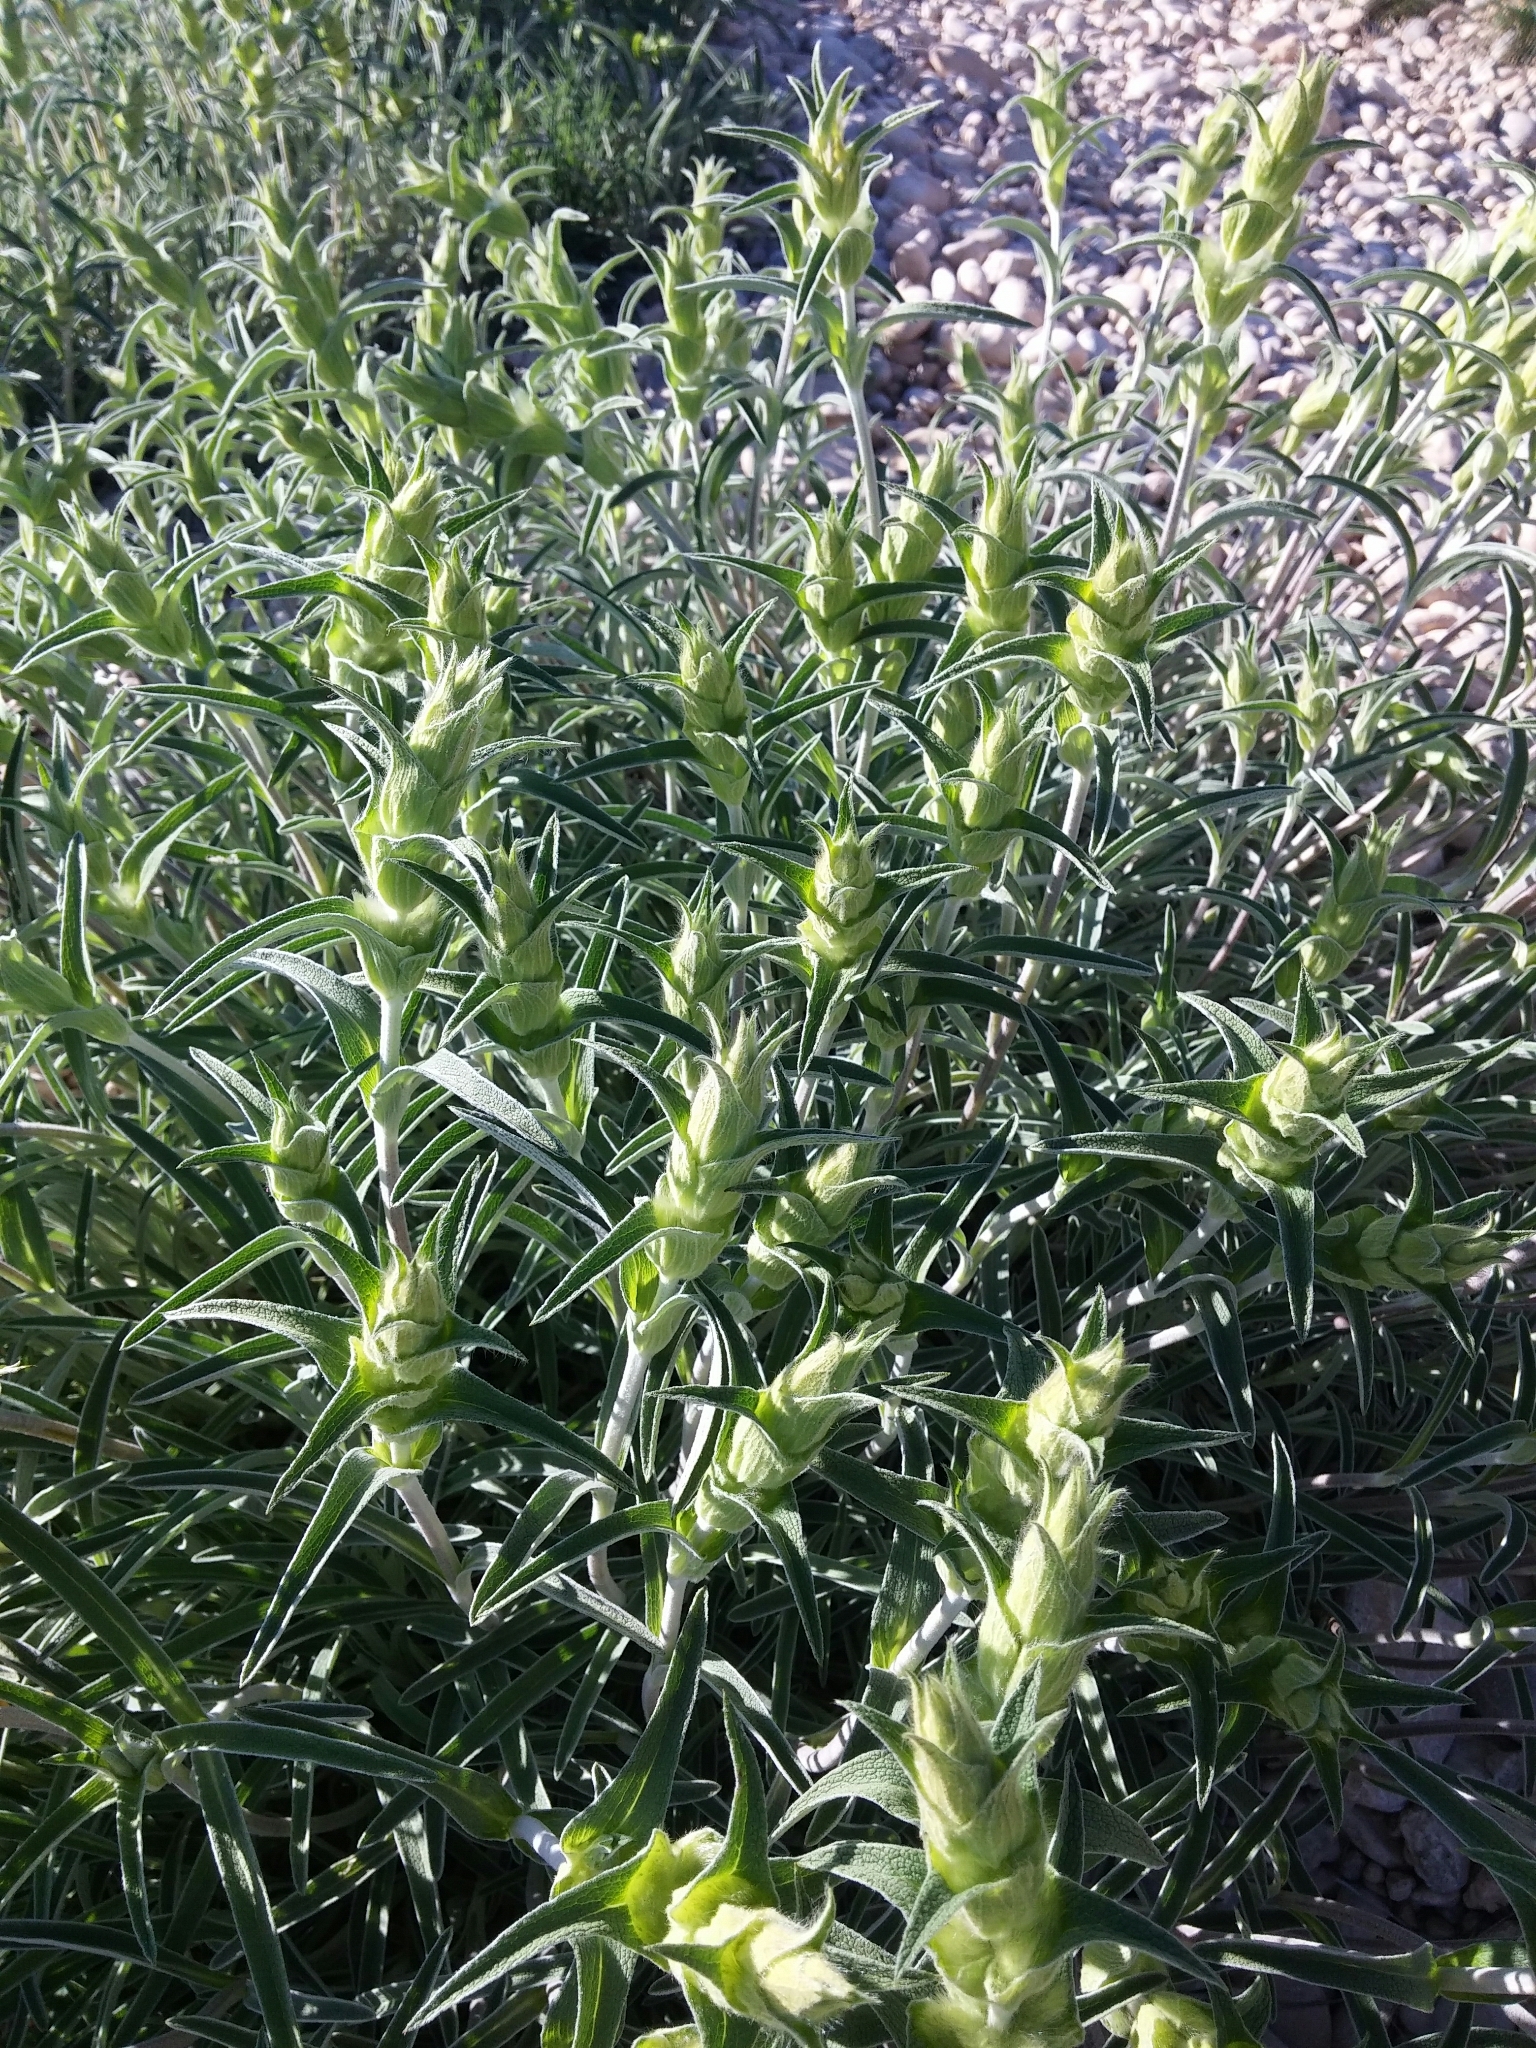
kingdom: Plantae
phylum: Tracheophyta
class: Magnoliopsida
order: Lamiales
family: Lamiaceae
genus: Phlomis
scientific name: Phlomis lychnitis
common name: Lampwickplant
